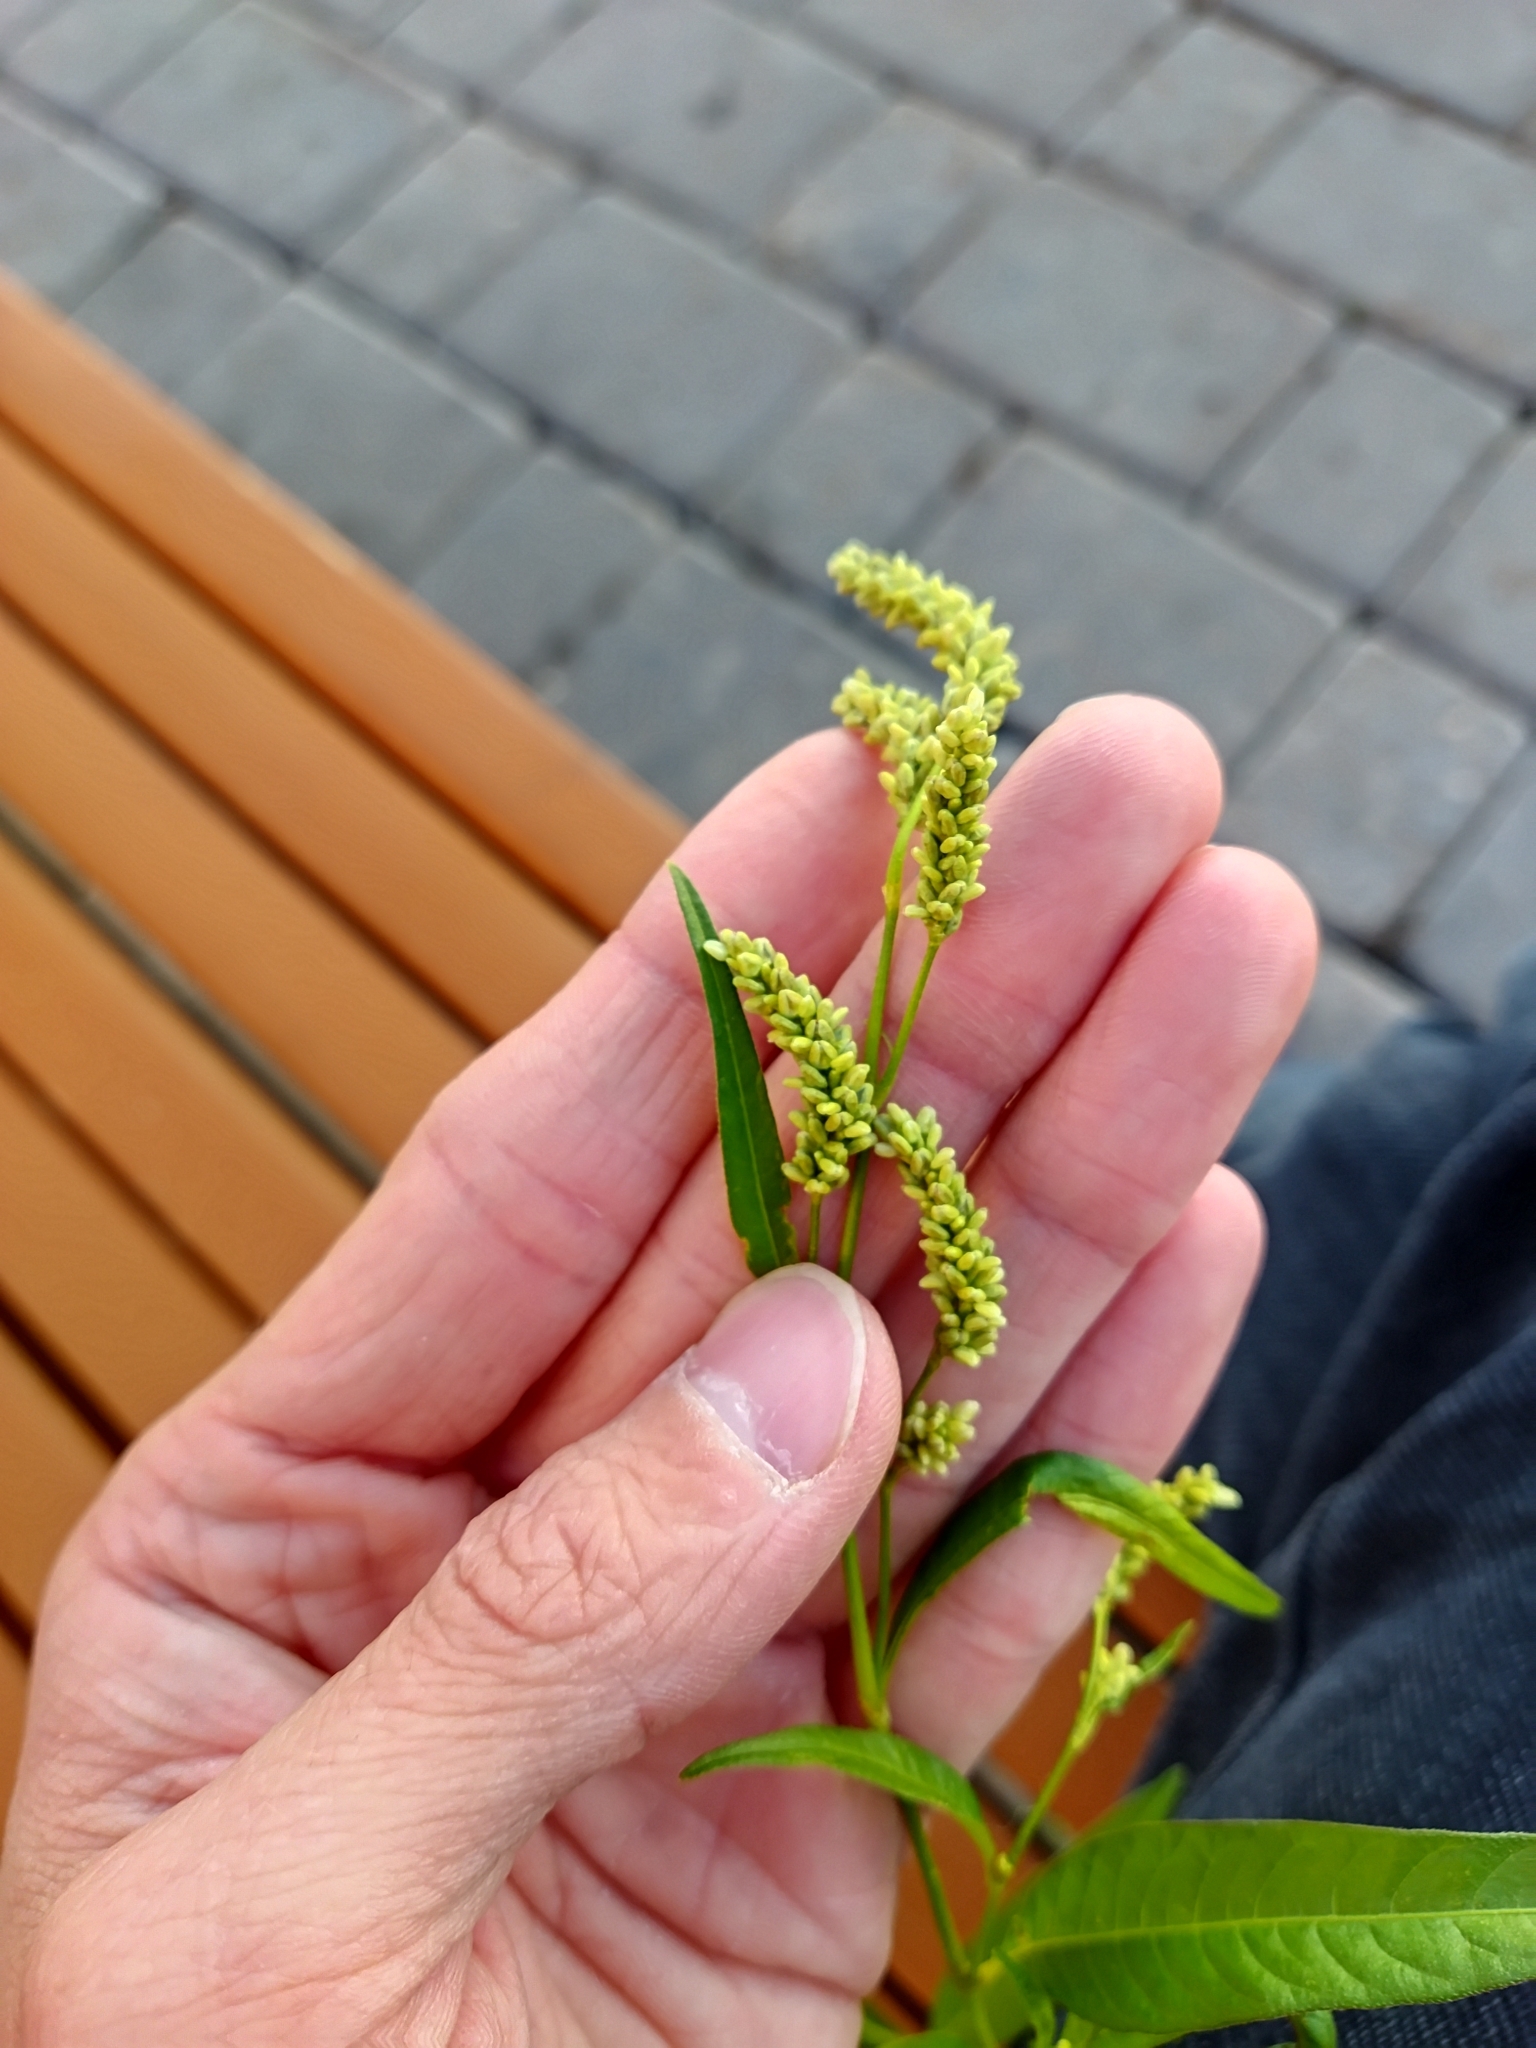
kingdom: Plantae
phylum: Tracheophyta
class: Magnoliopsida
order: Caryophyllales
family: Polygonaceae
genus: Persicaria
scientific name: Persicaria lapathifolia
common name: Curlytop knotweed
